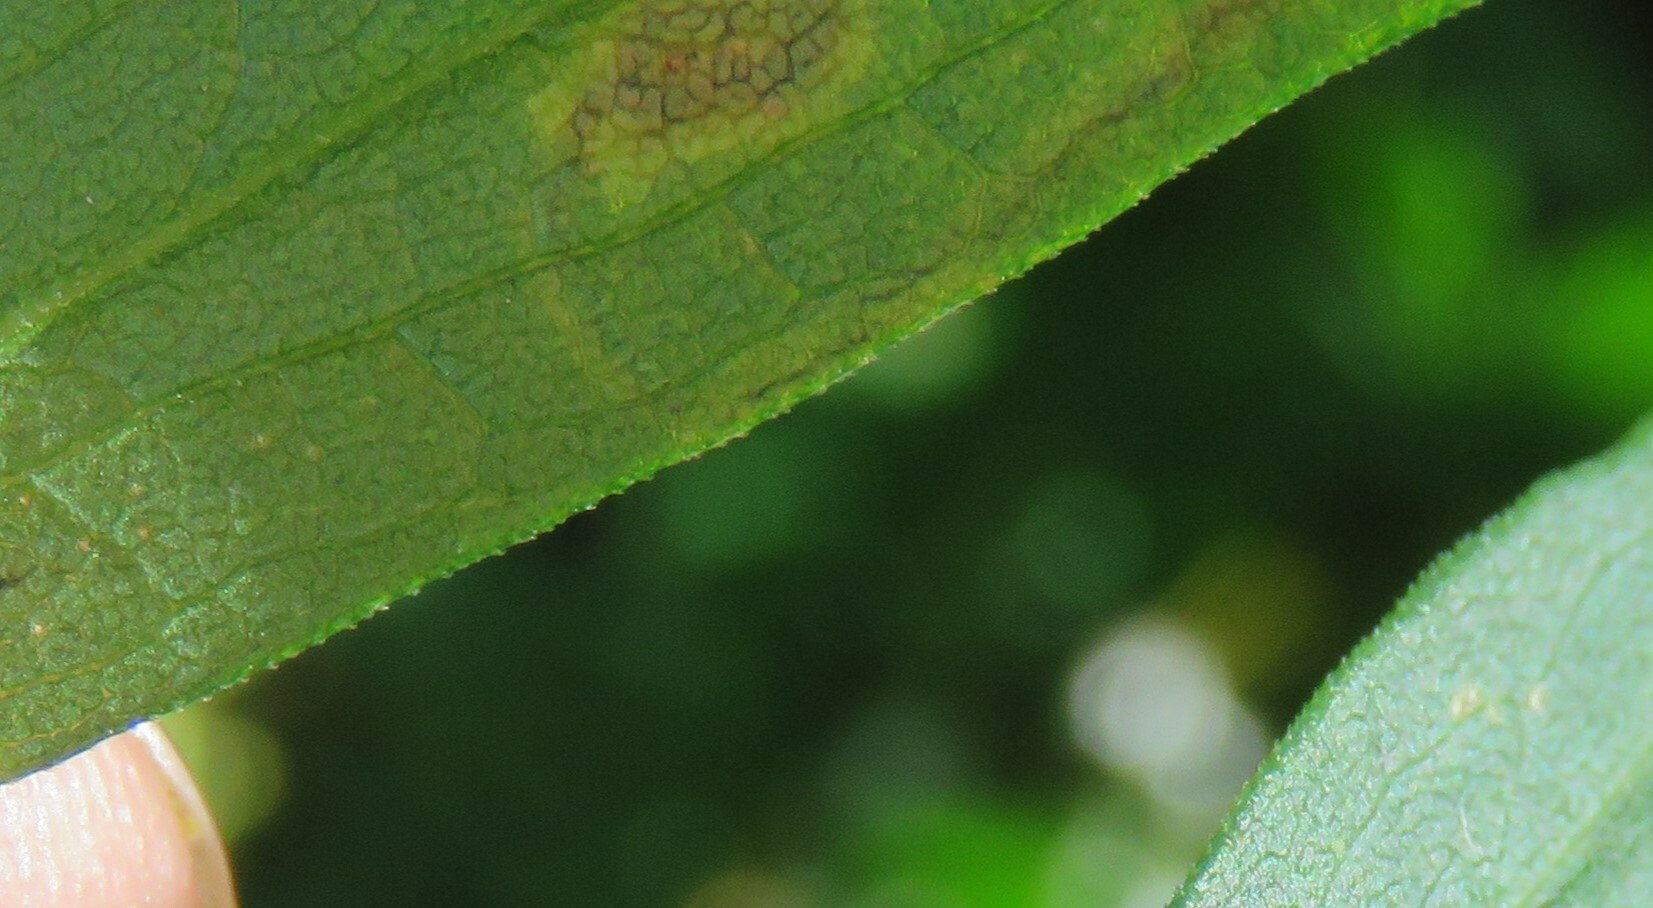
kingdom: Animalia
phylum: Arthropoda
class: Insecta
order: Diptera
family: Agromyzidae
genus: Liriomyza
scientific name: Liriomyza eupatorii
